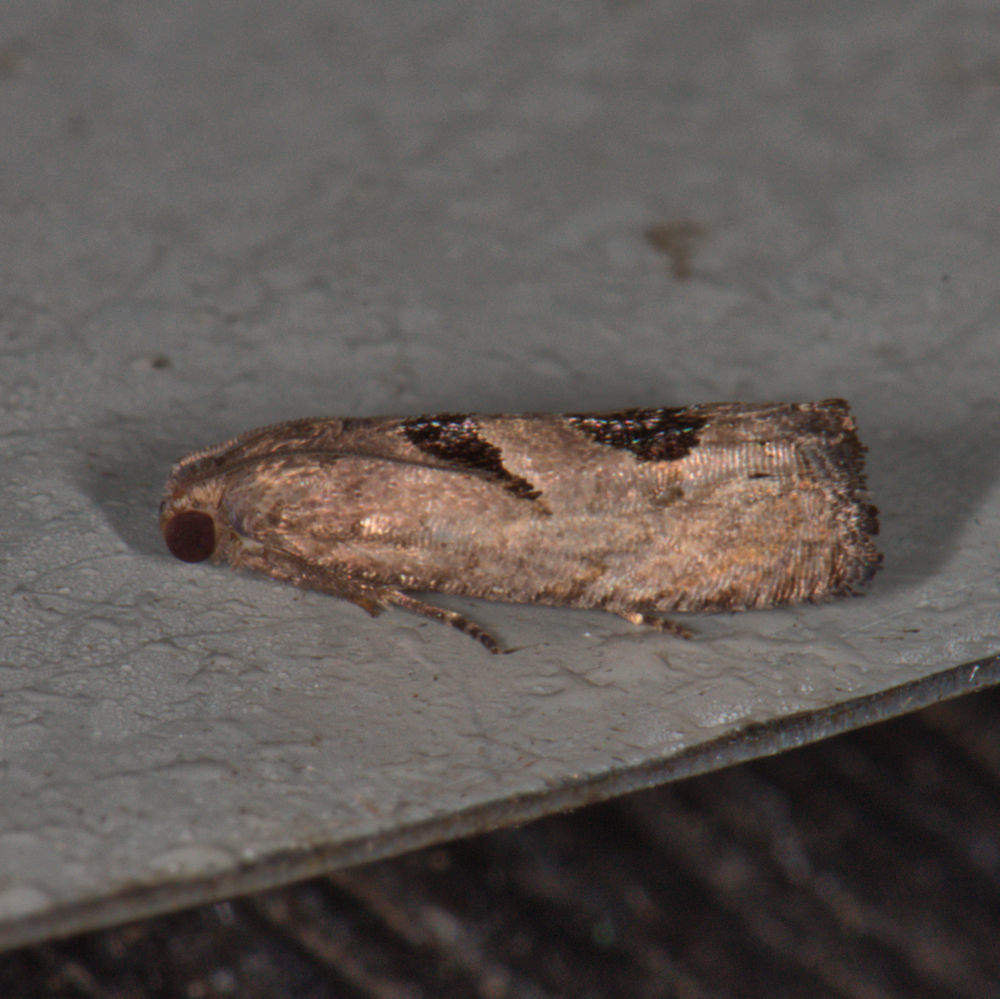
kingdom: Animalia
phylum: Arthropoda
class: Insecta
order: Lepidoptera
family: Tortricidae
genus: Eucosma
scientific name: Eucosma tomonana
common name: Aster-head eucosma moth
